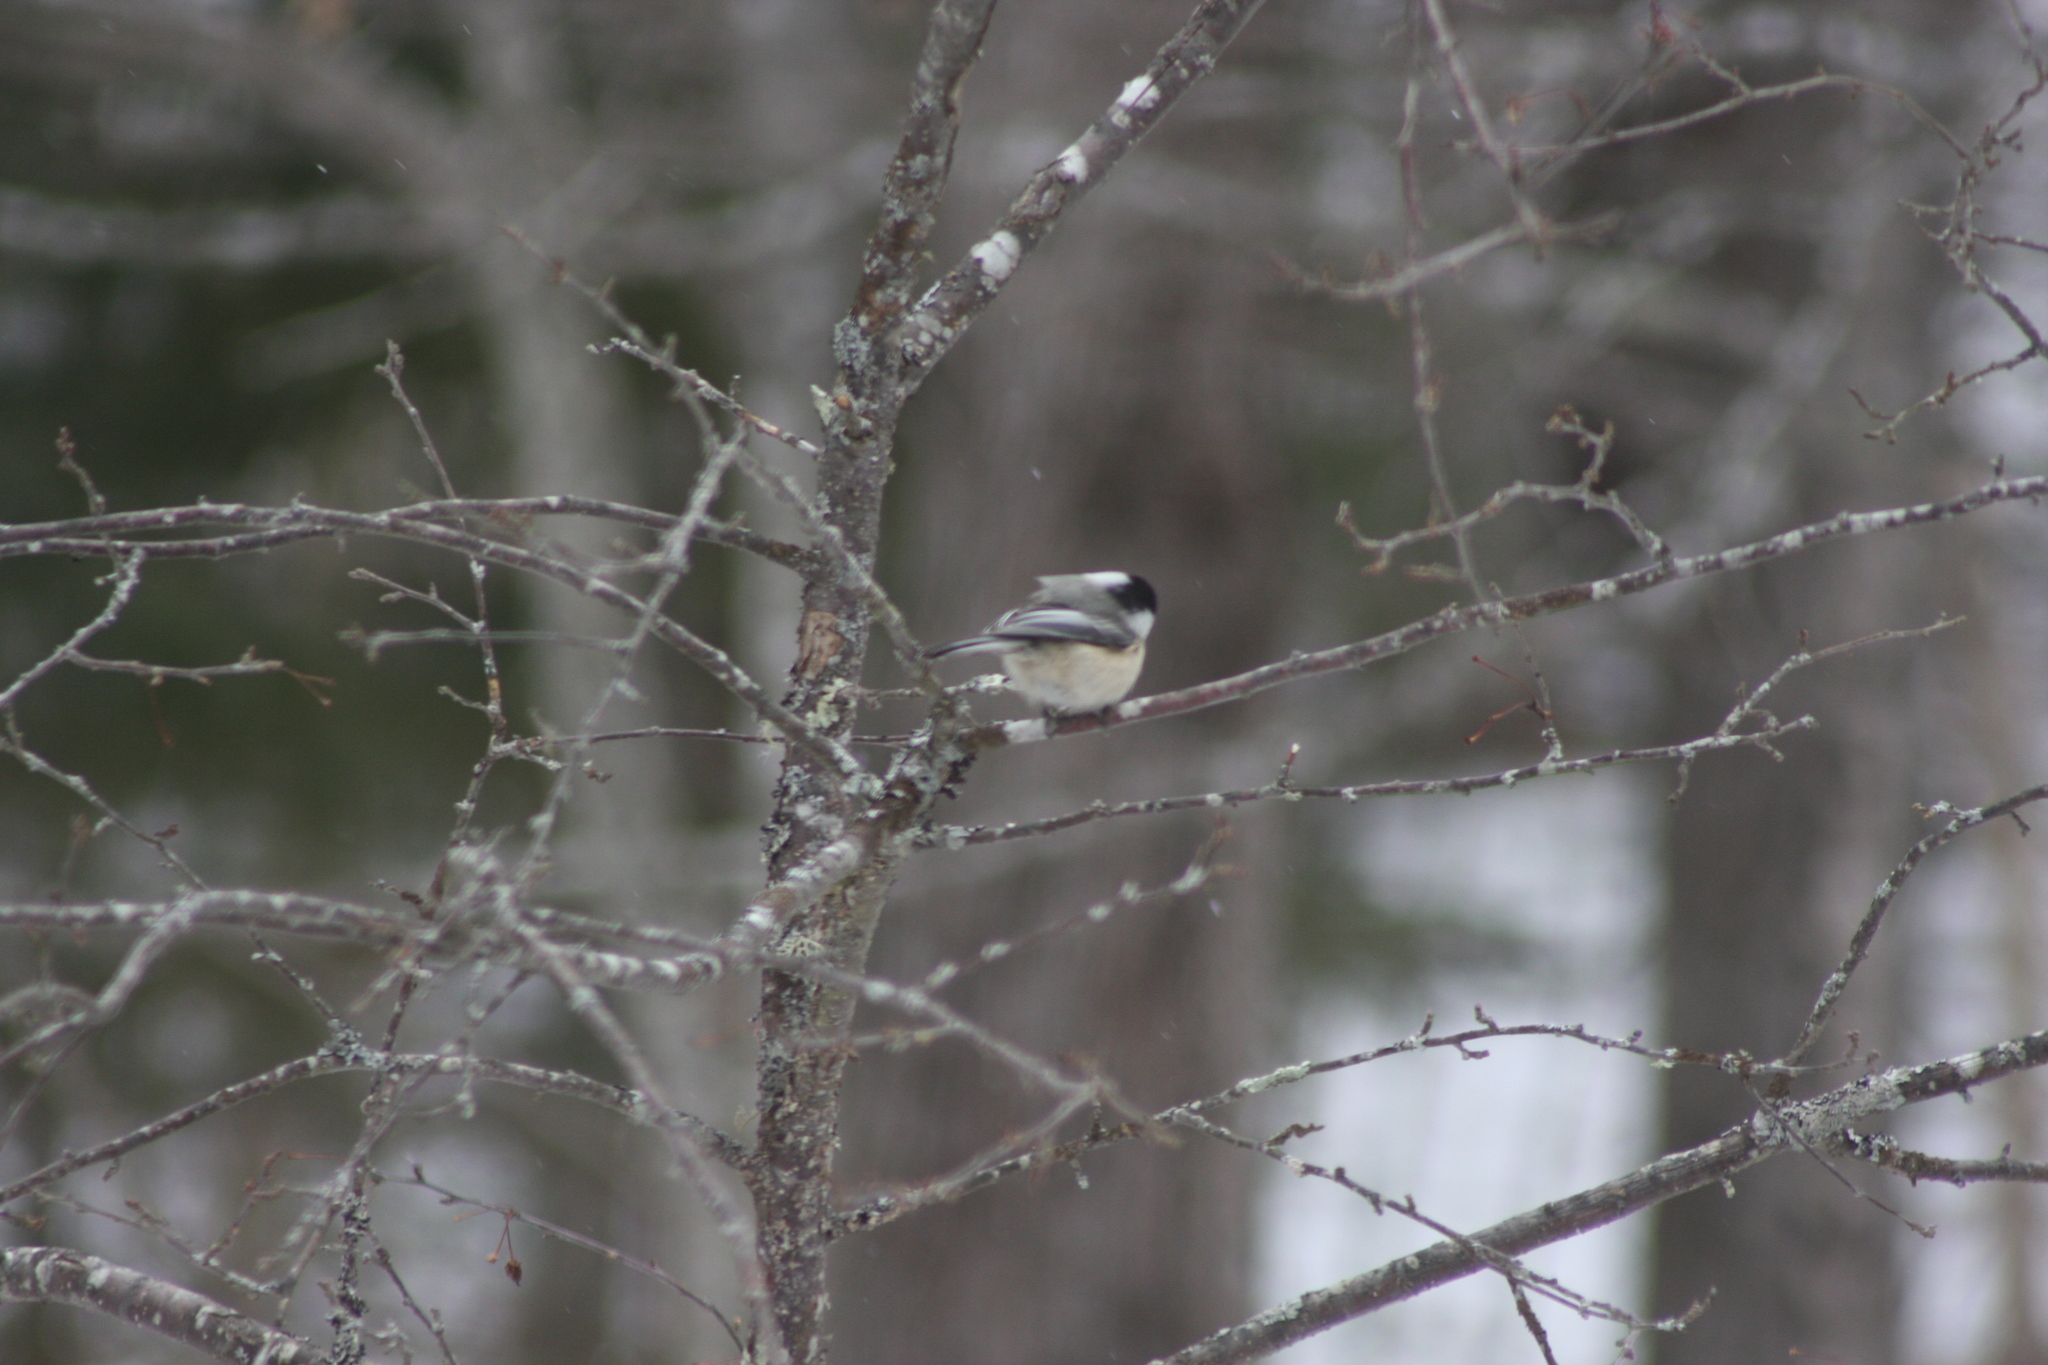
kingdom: Animalia
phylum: Chordata
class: Aves
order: Passeriformes
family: Paridae
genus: Poecile
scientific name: Poecile atricapillus
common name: Black-capped chickadee
